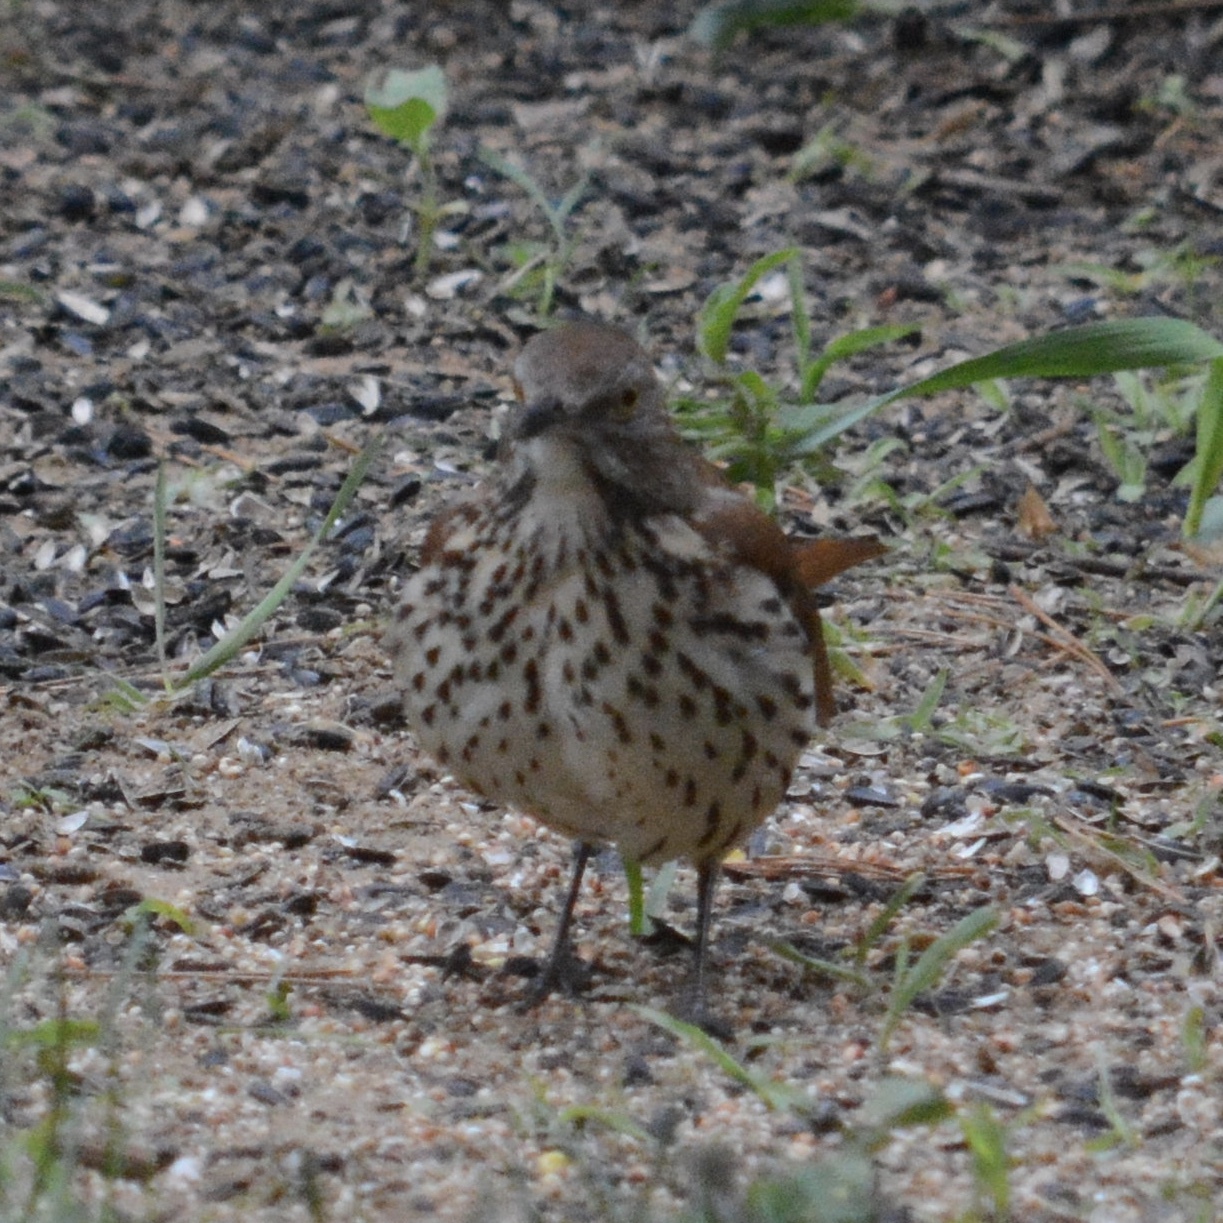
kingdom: Animalia
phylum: Chordata
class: Aves
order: Passeriformes
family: Mimidae
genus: Toxostoma
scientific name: Toxostoma rufum
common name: Brown thrasher
